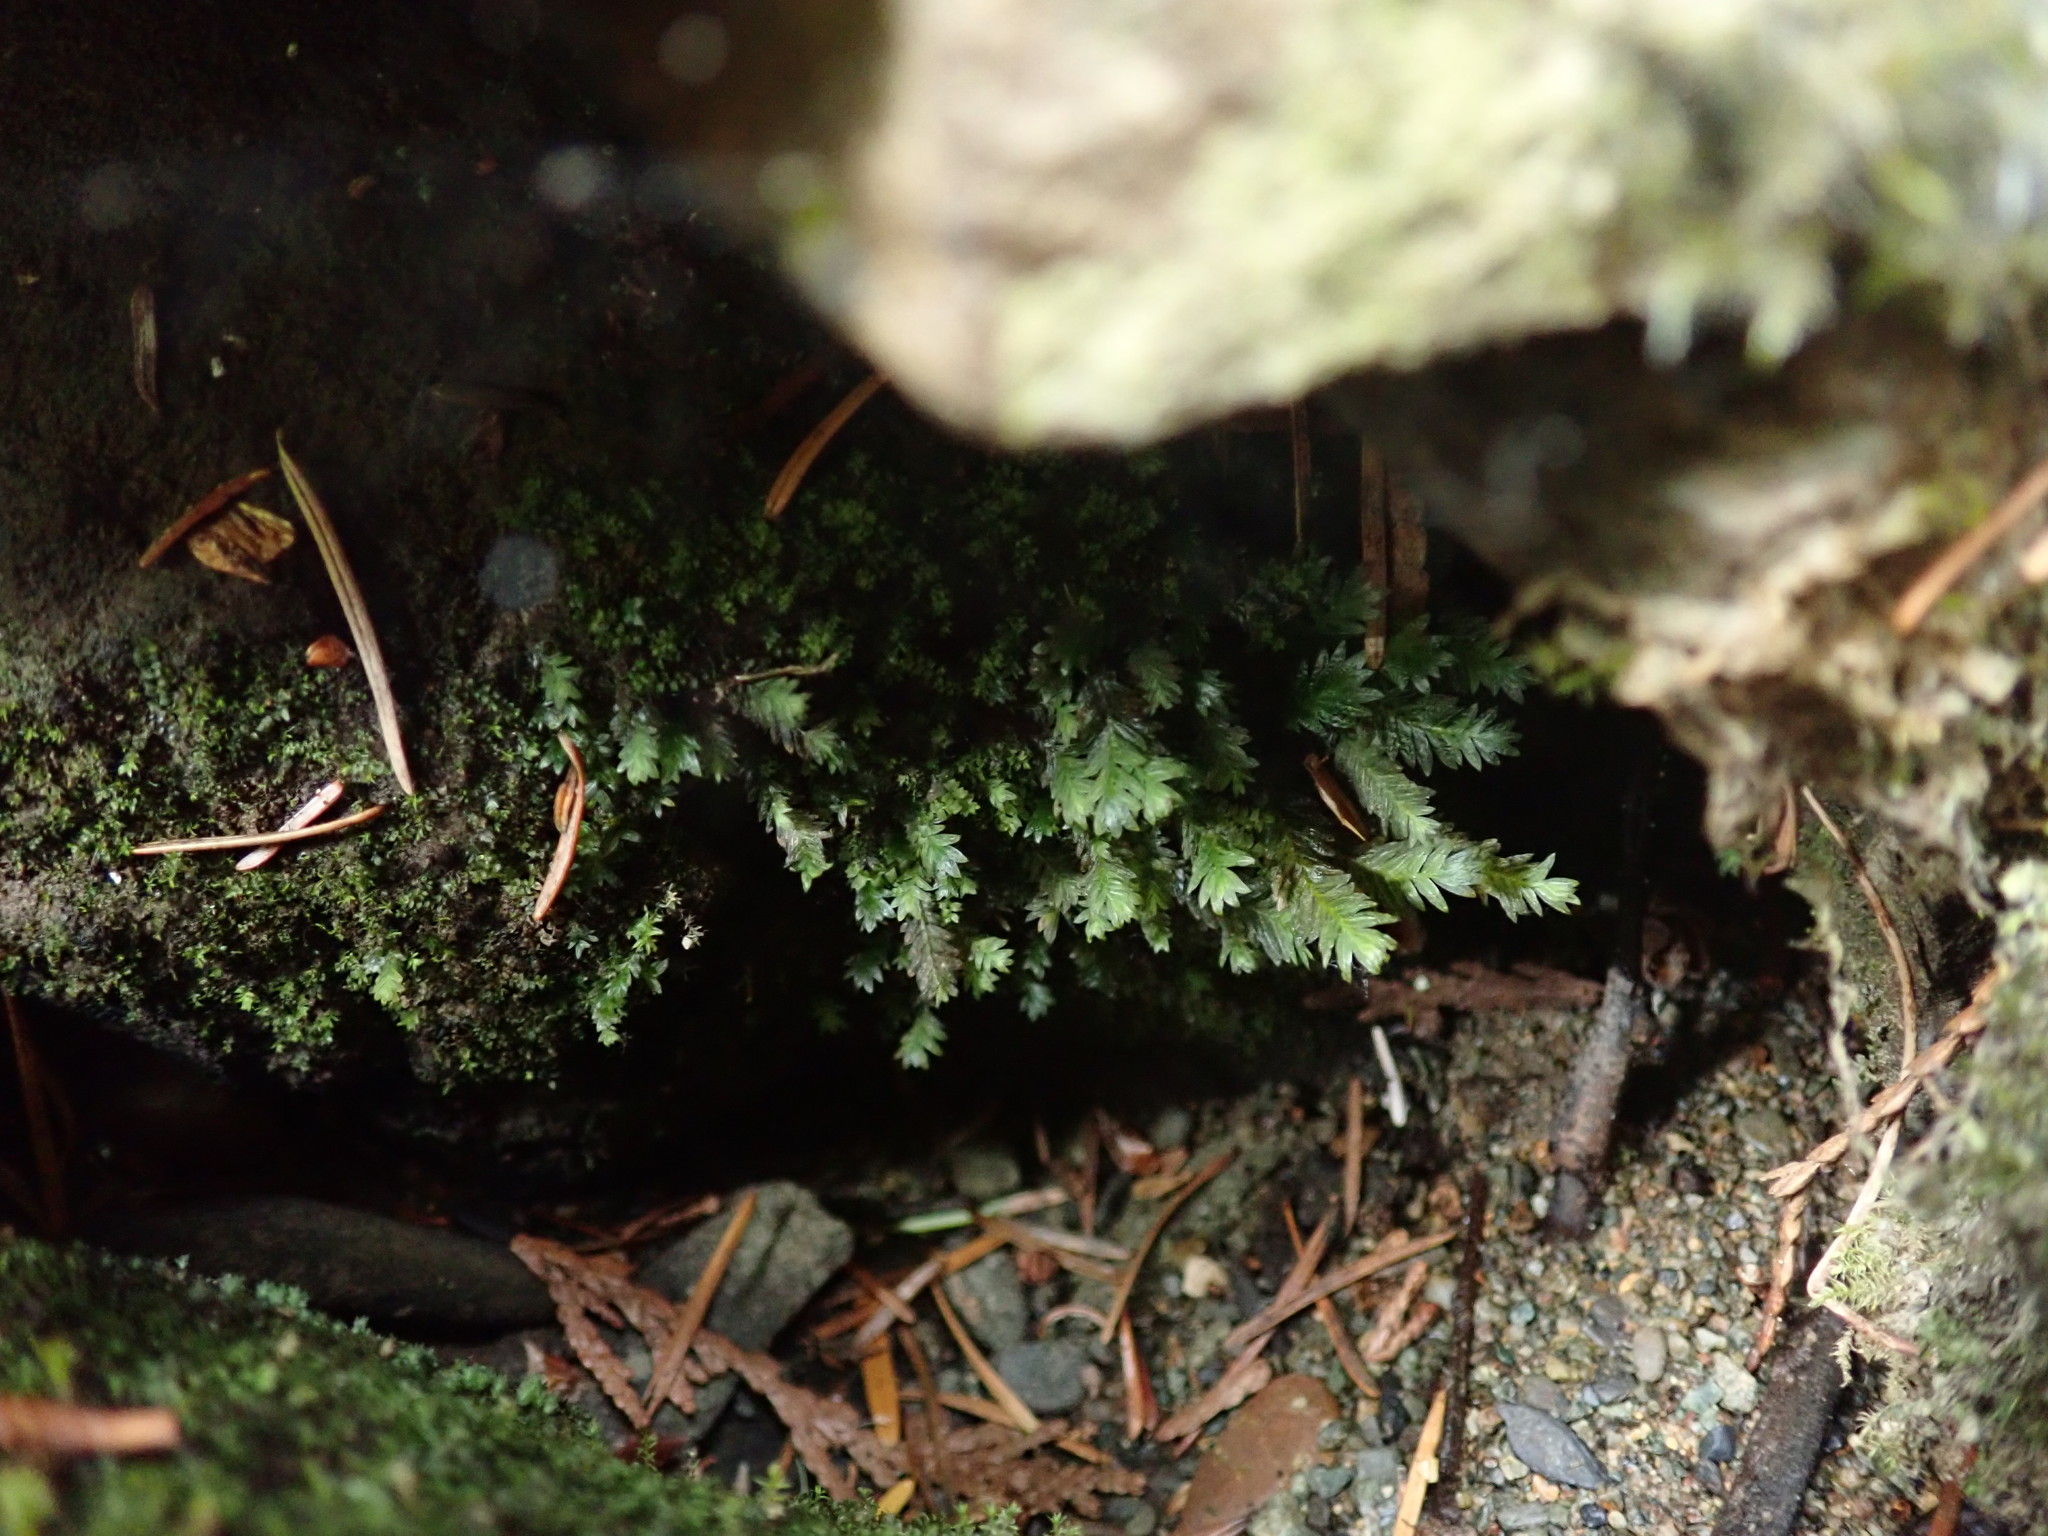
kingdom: Plantae
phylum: Bryophyta
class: Bryopsida
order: Dicranales
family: Fissidentaceae
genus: Fissidens
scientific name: Fissidens adianthoides
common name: Maidenhair pocket moss
